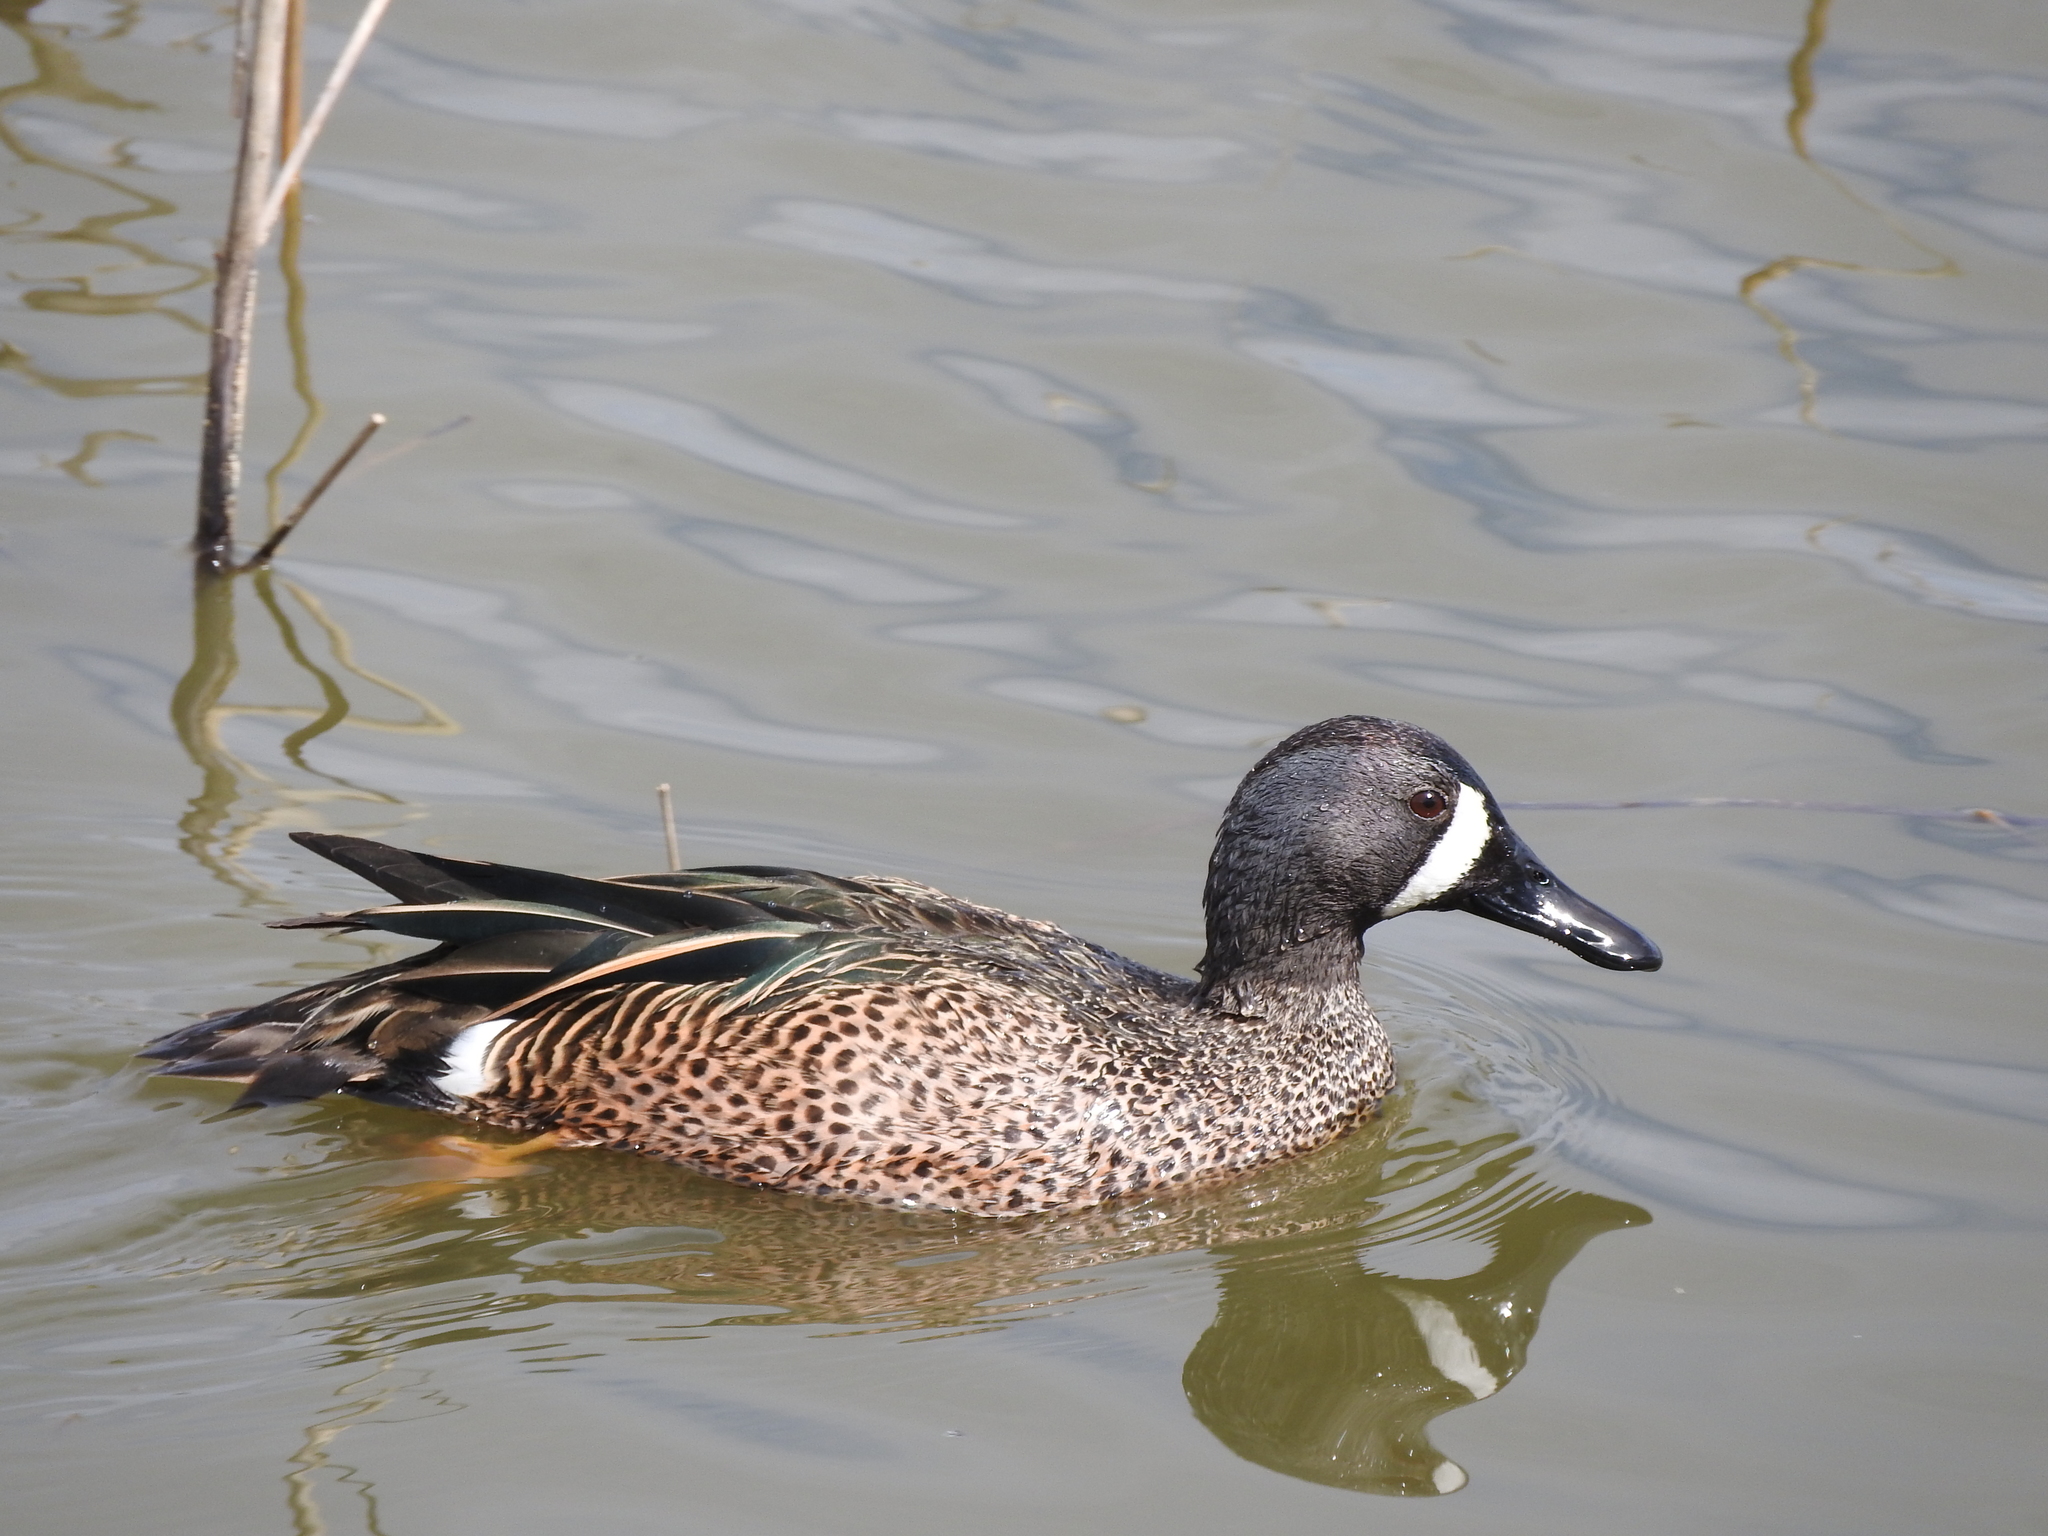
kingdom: Animalia
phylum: Chordata
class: Aves
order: Anseriformes
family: Anatidae
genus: Spatula
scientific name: Spatula discors
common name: Blue-winged teal
